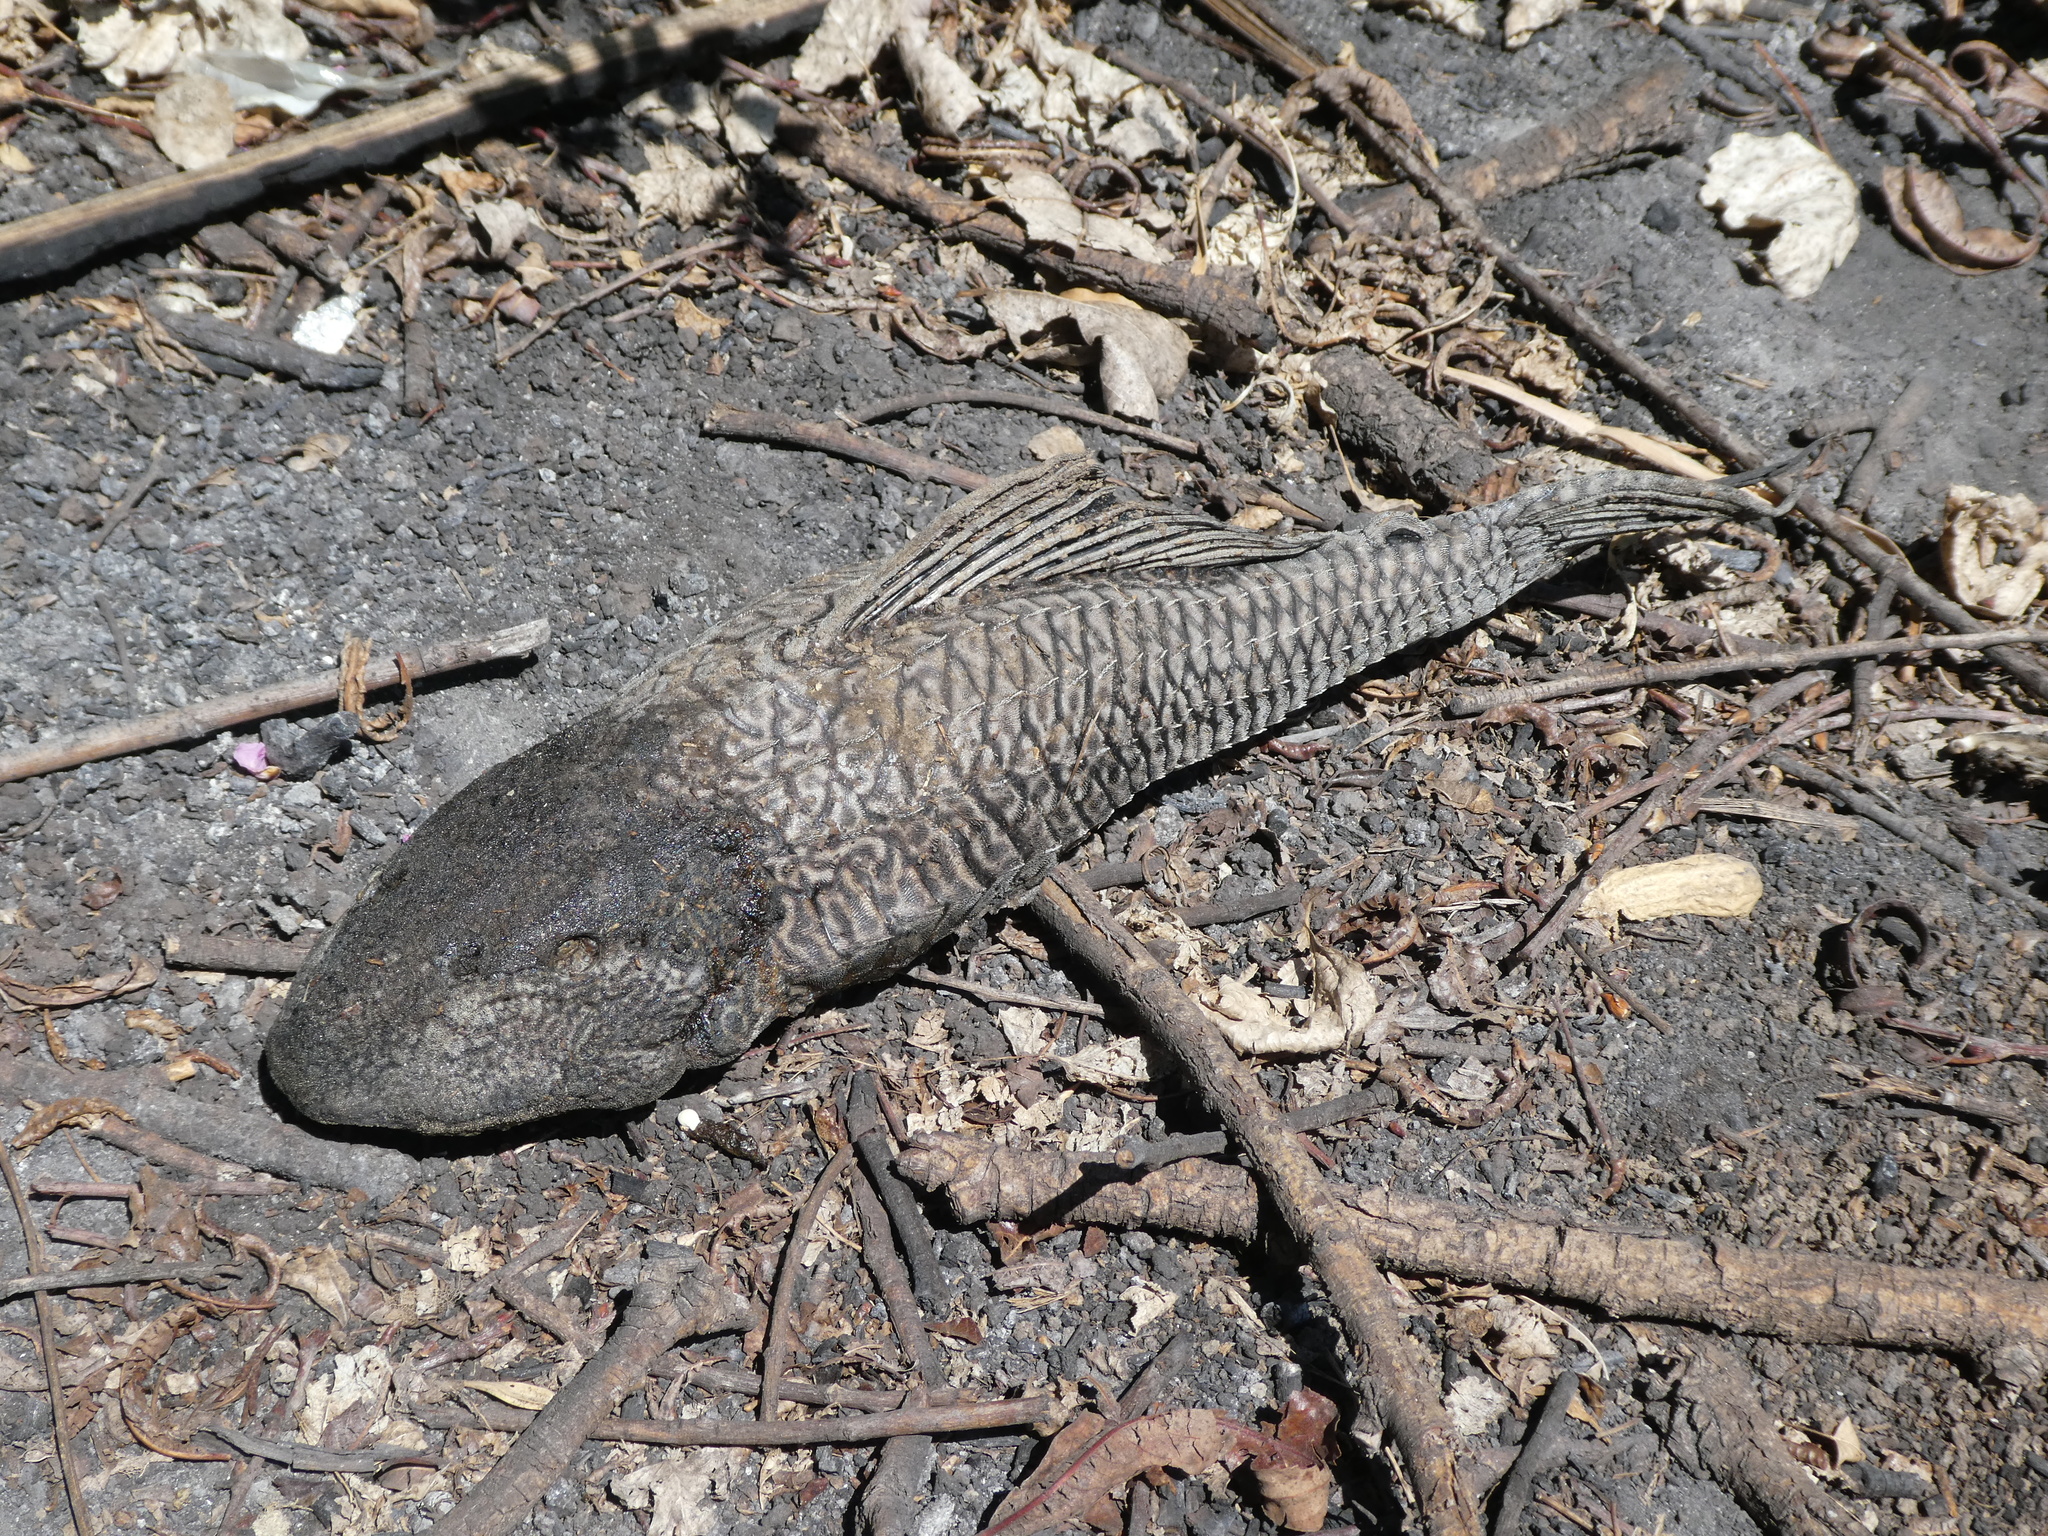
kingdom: Animalia
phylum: Chordata
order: Siluriformes
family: Loricariidae
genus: Pterygoplichthys
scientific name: Pterygoplichthys
